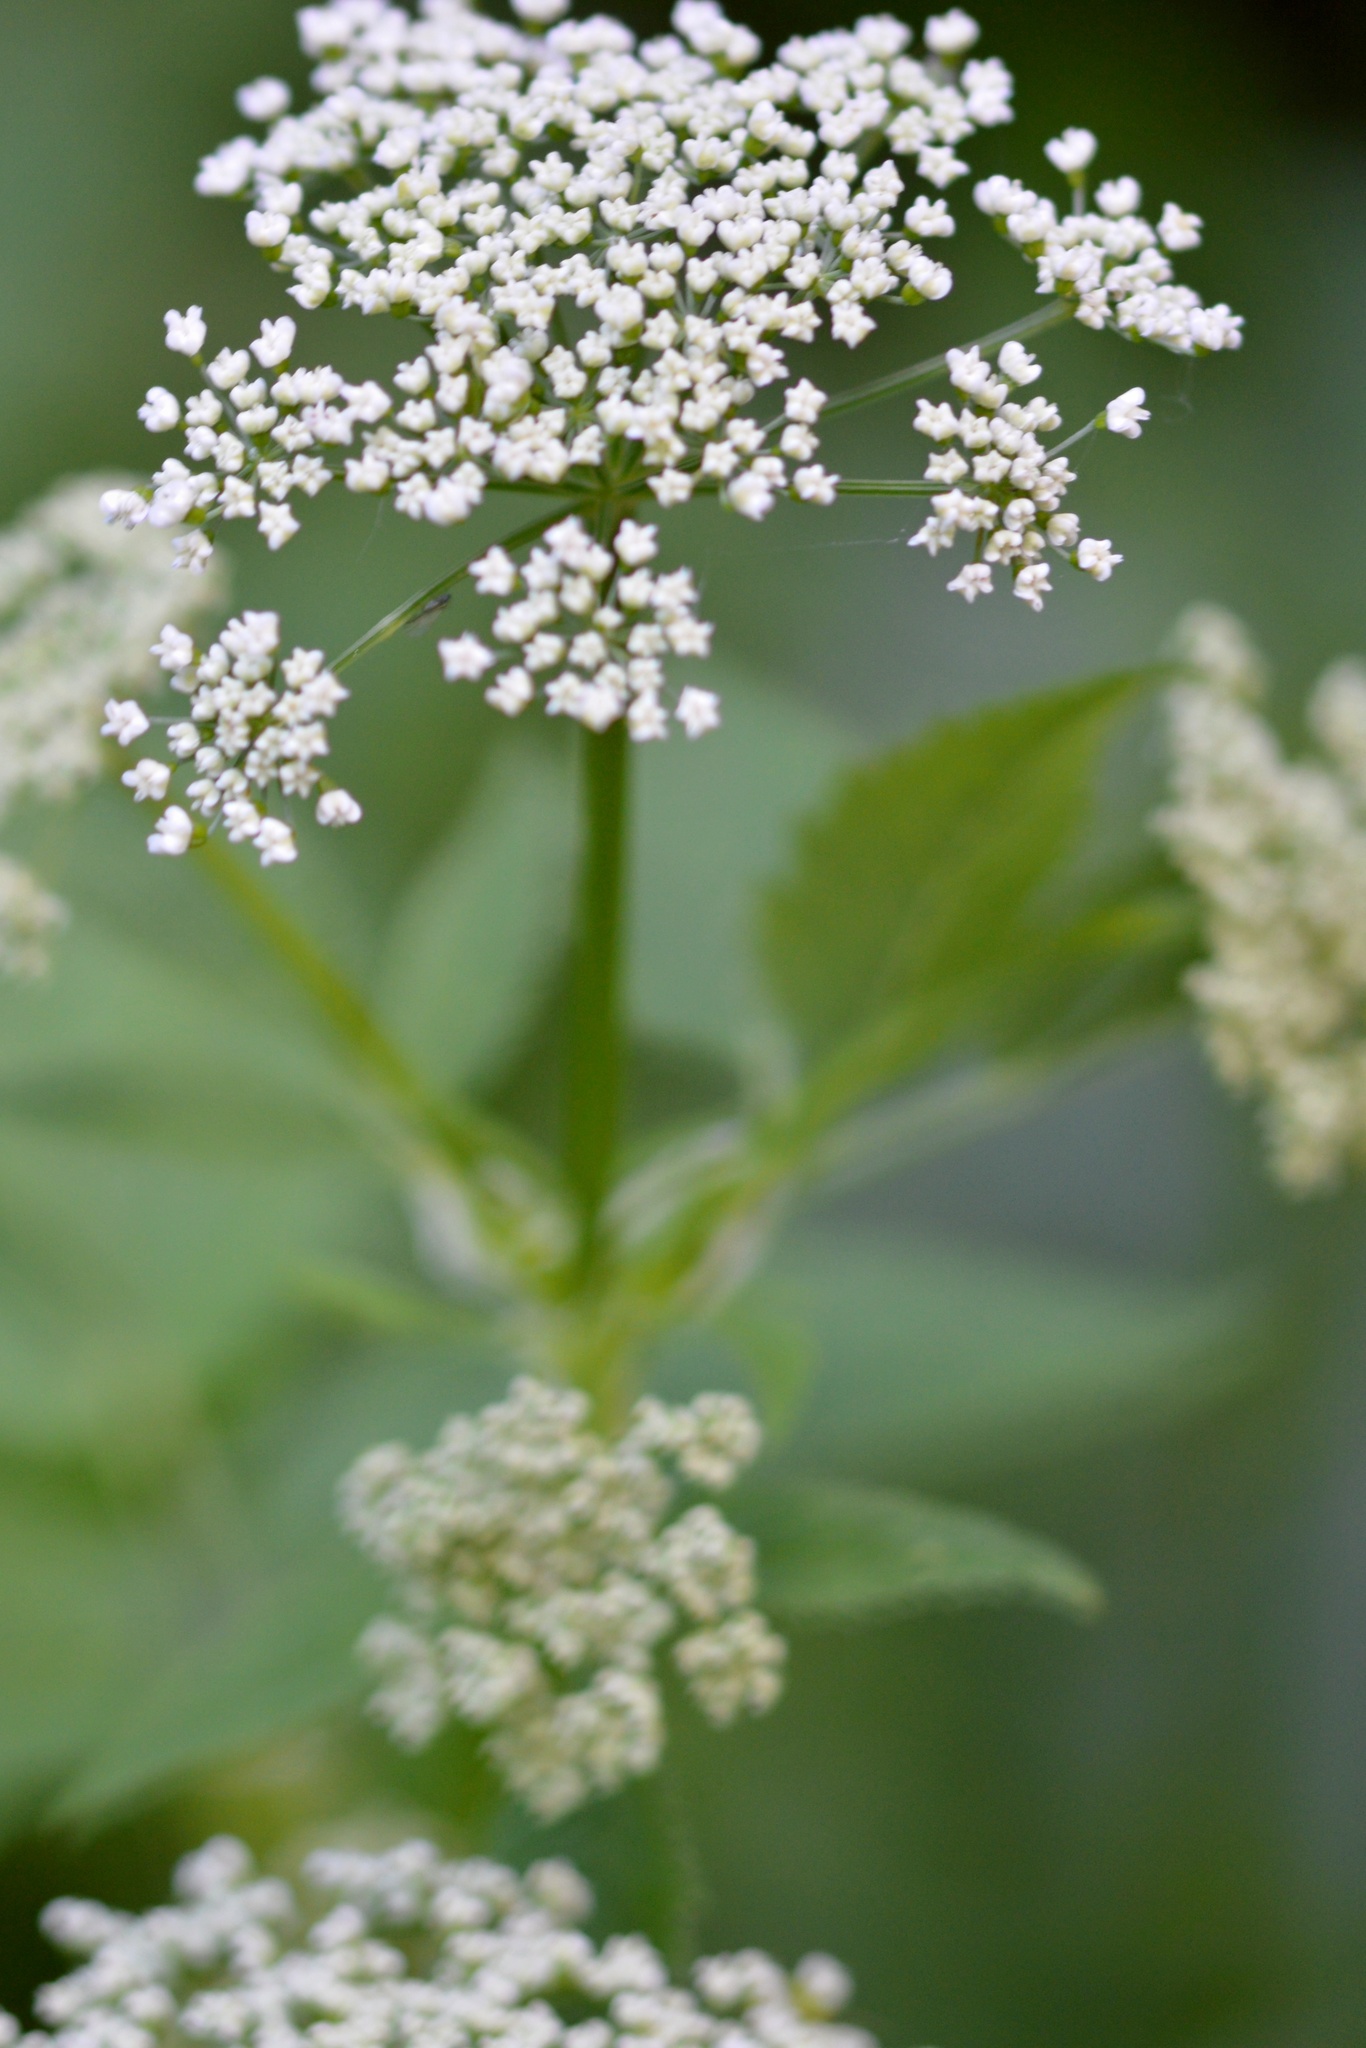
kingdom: Plantae
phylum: Tracheophyta
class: Magnoliopsida
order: Apiales
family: Apiaceae
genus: Aegopodium
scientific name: Aegopodium podagraria
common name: Ground-elder
